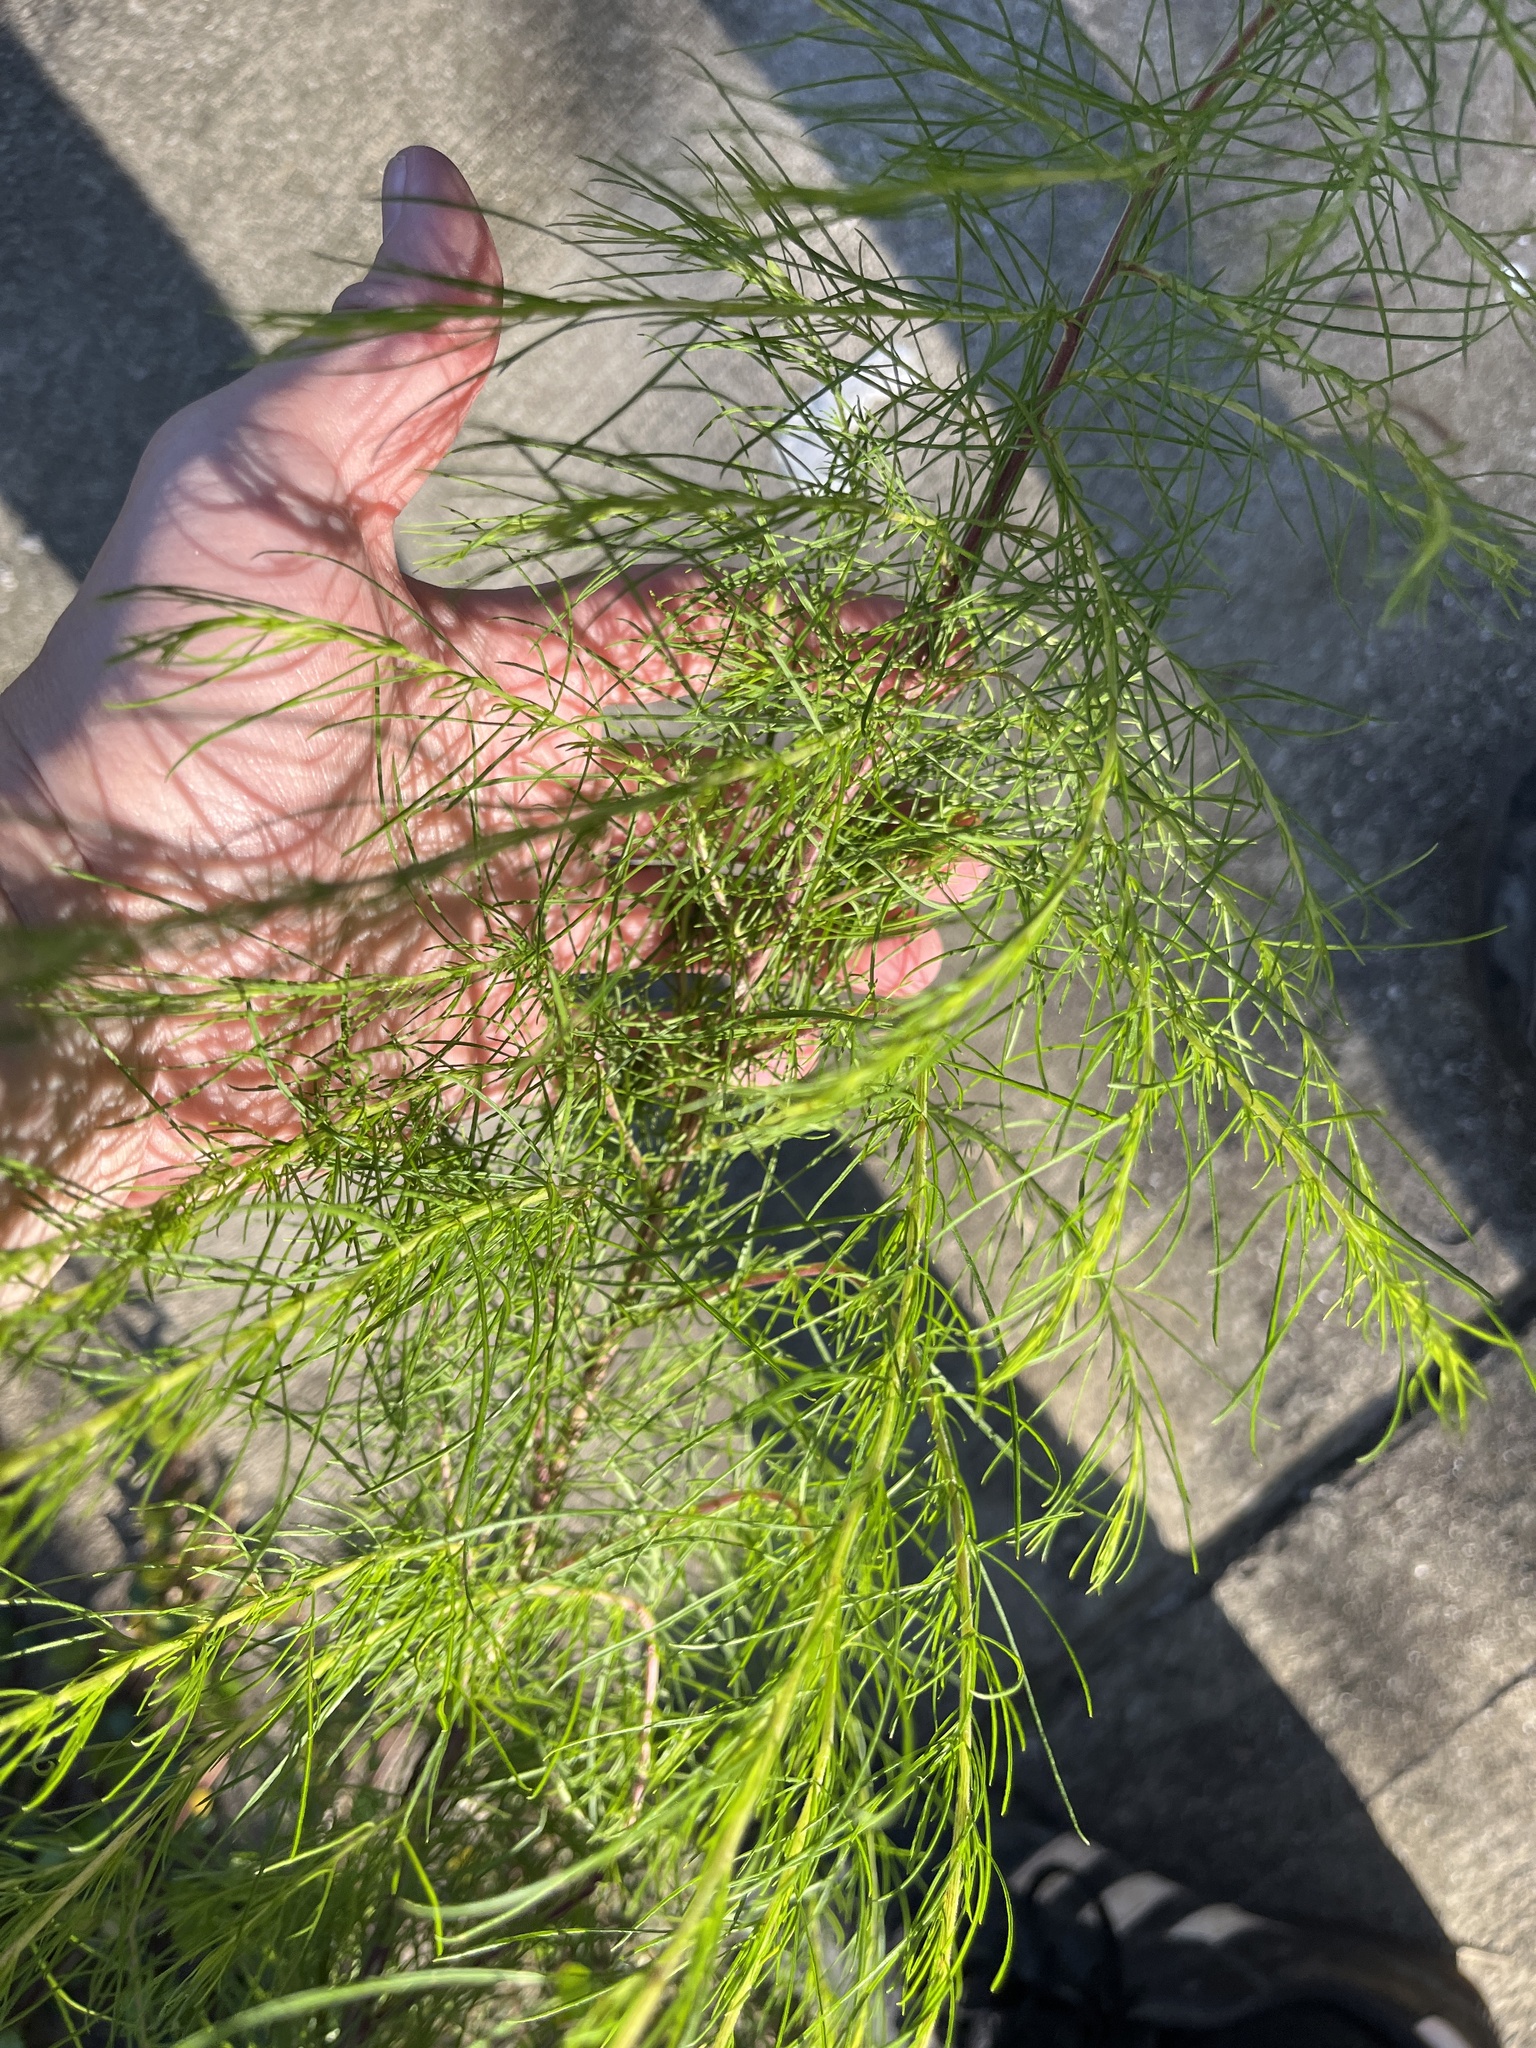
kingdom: Plantae
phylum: Tracheophyta
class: Magnoliopsida
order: Asterales
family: Asteraceae
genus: Eupatorium
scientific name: Eupatorium capillifolium
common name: Dog-fennel
